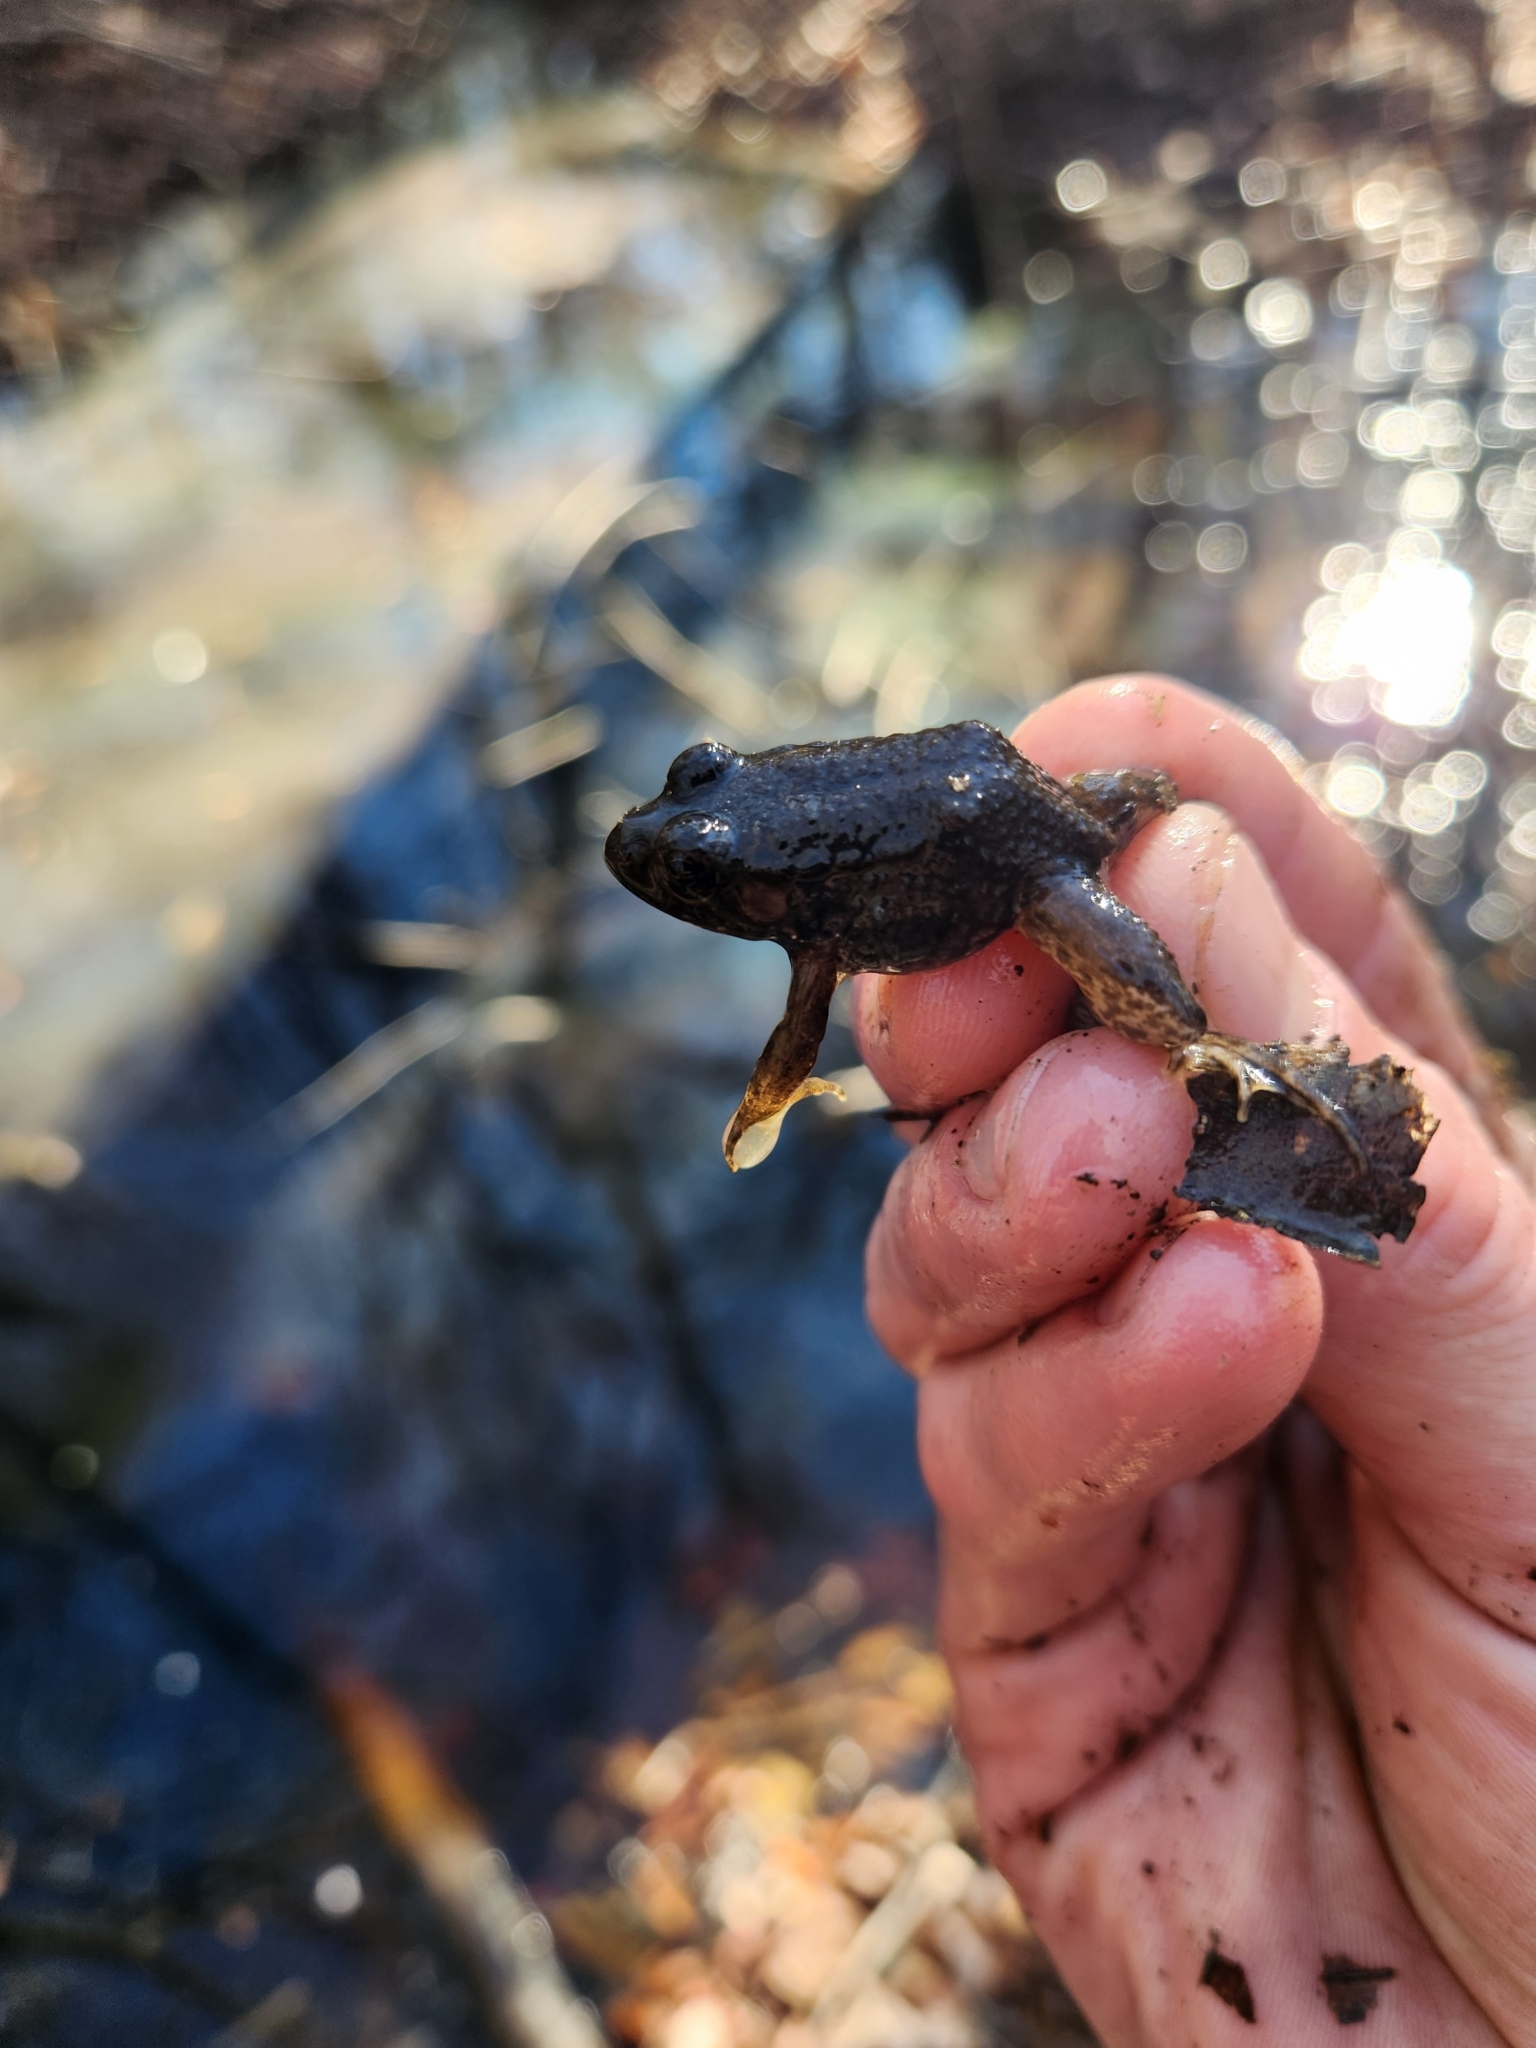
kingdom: Animalia
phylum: Chordata
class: Amphibia
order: Anura
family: Ranidae
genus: Lithobates
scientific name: Lithobates clamitans
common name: Green frog
